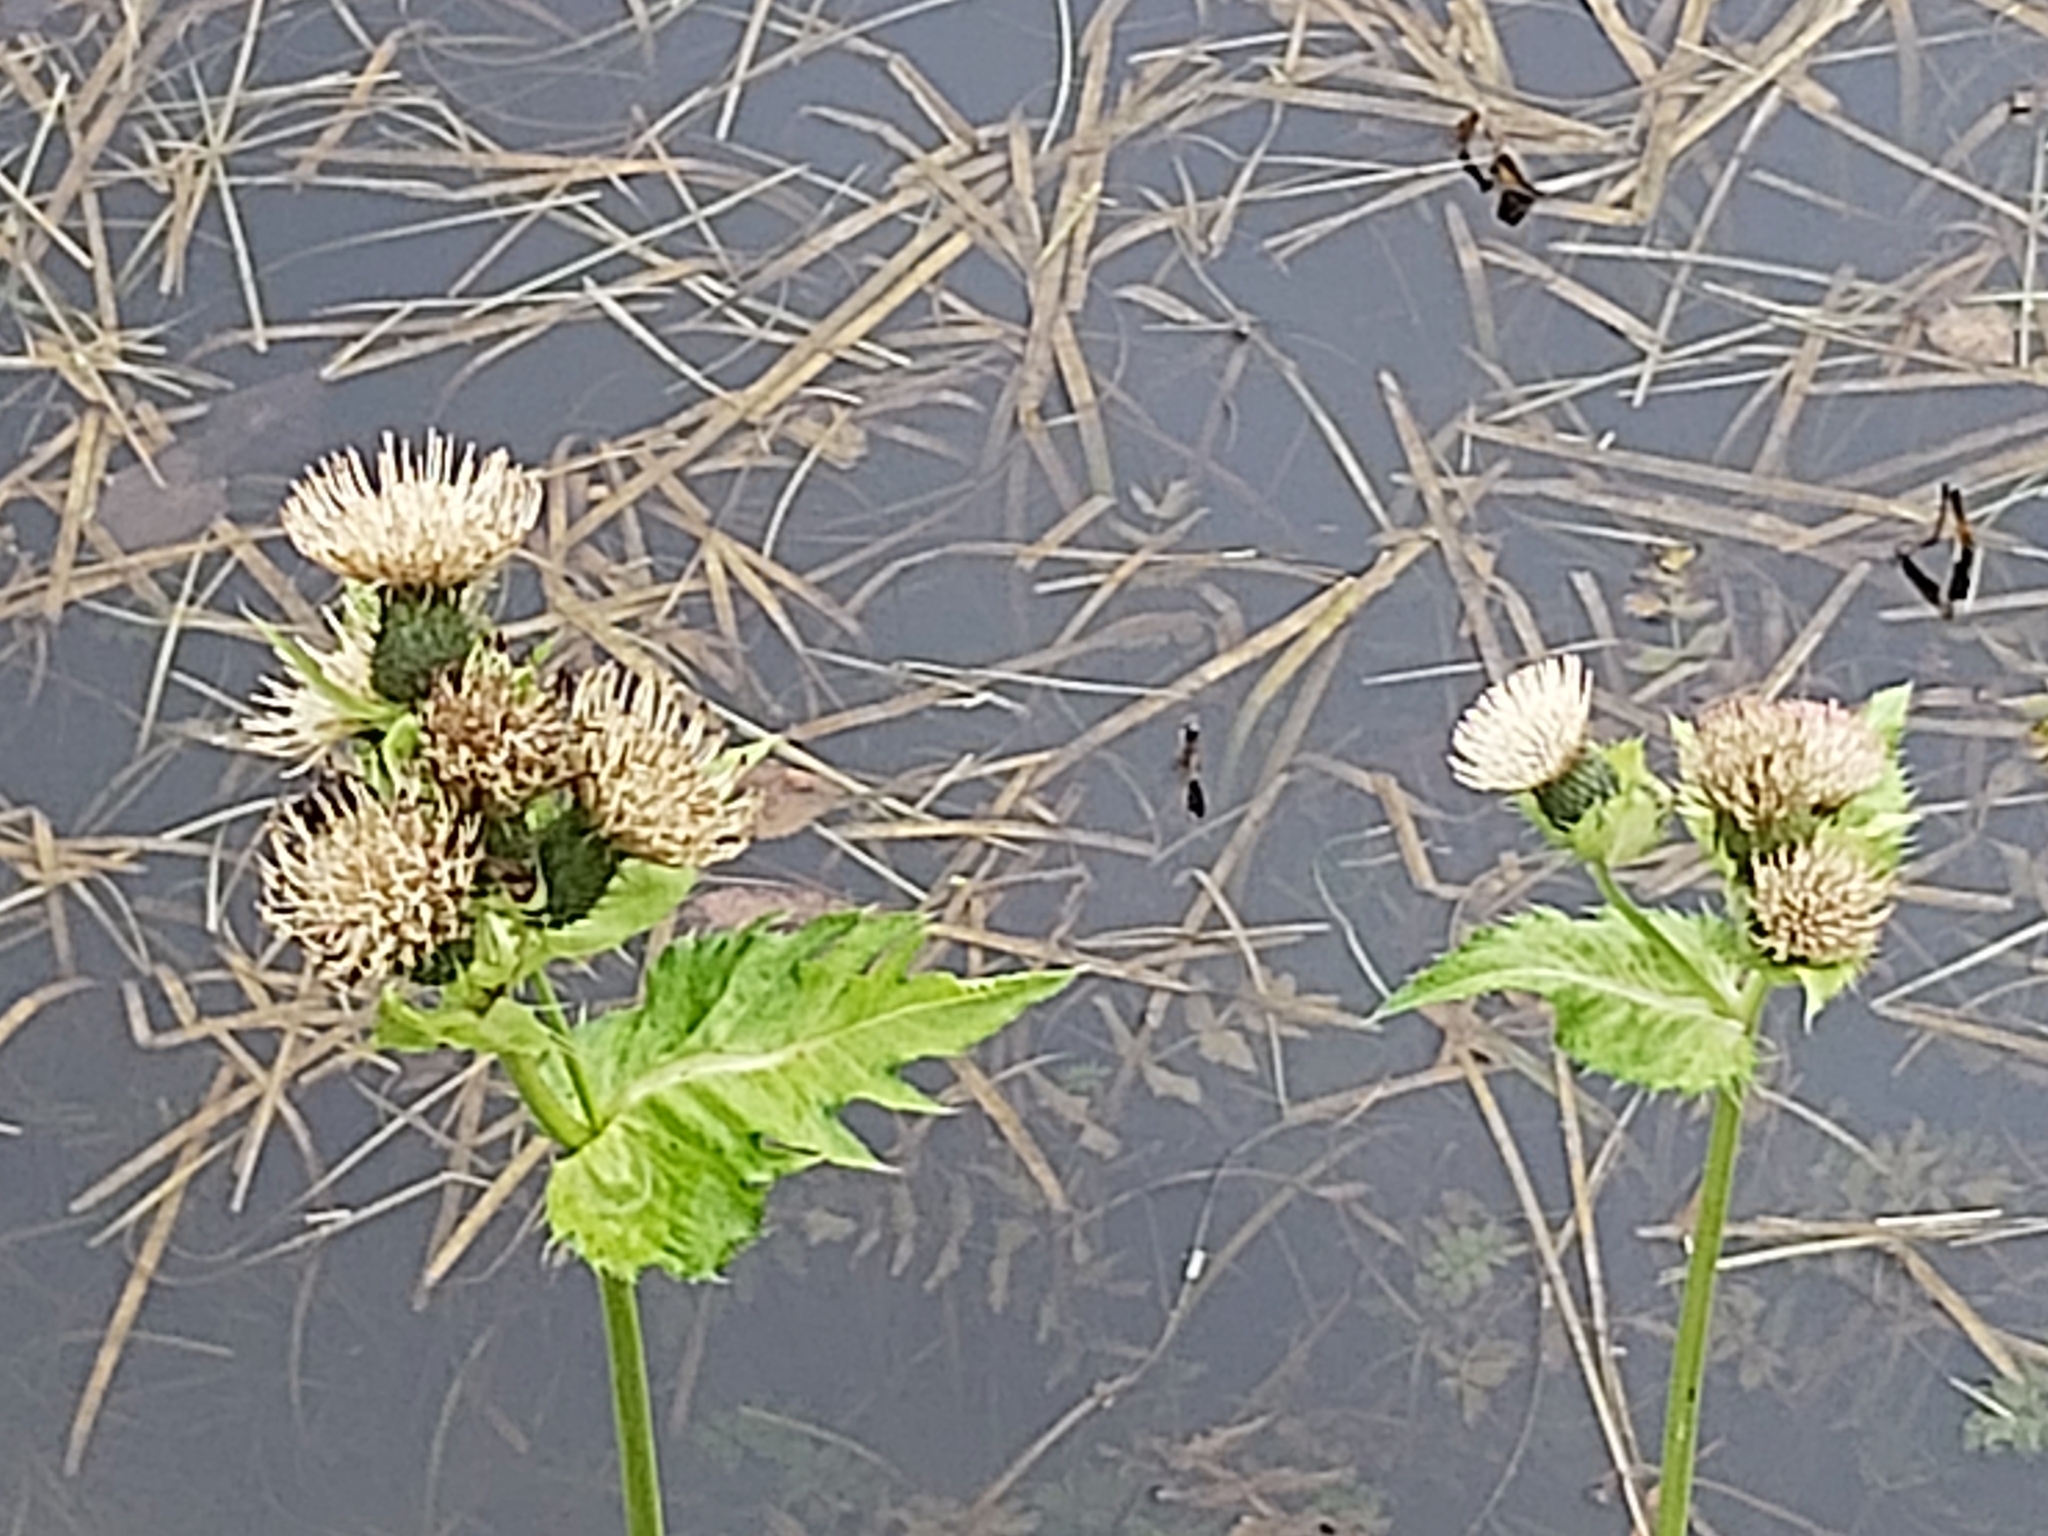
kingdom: Plantae
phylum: Tracheophyta
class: Magnoliopsida
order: Asterales
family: Asteraceae
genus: Cirsium
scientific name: Cirsium oleraceum
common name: Cabbage thistle
